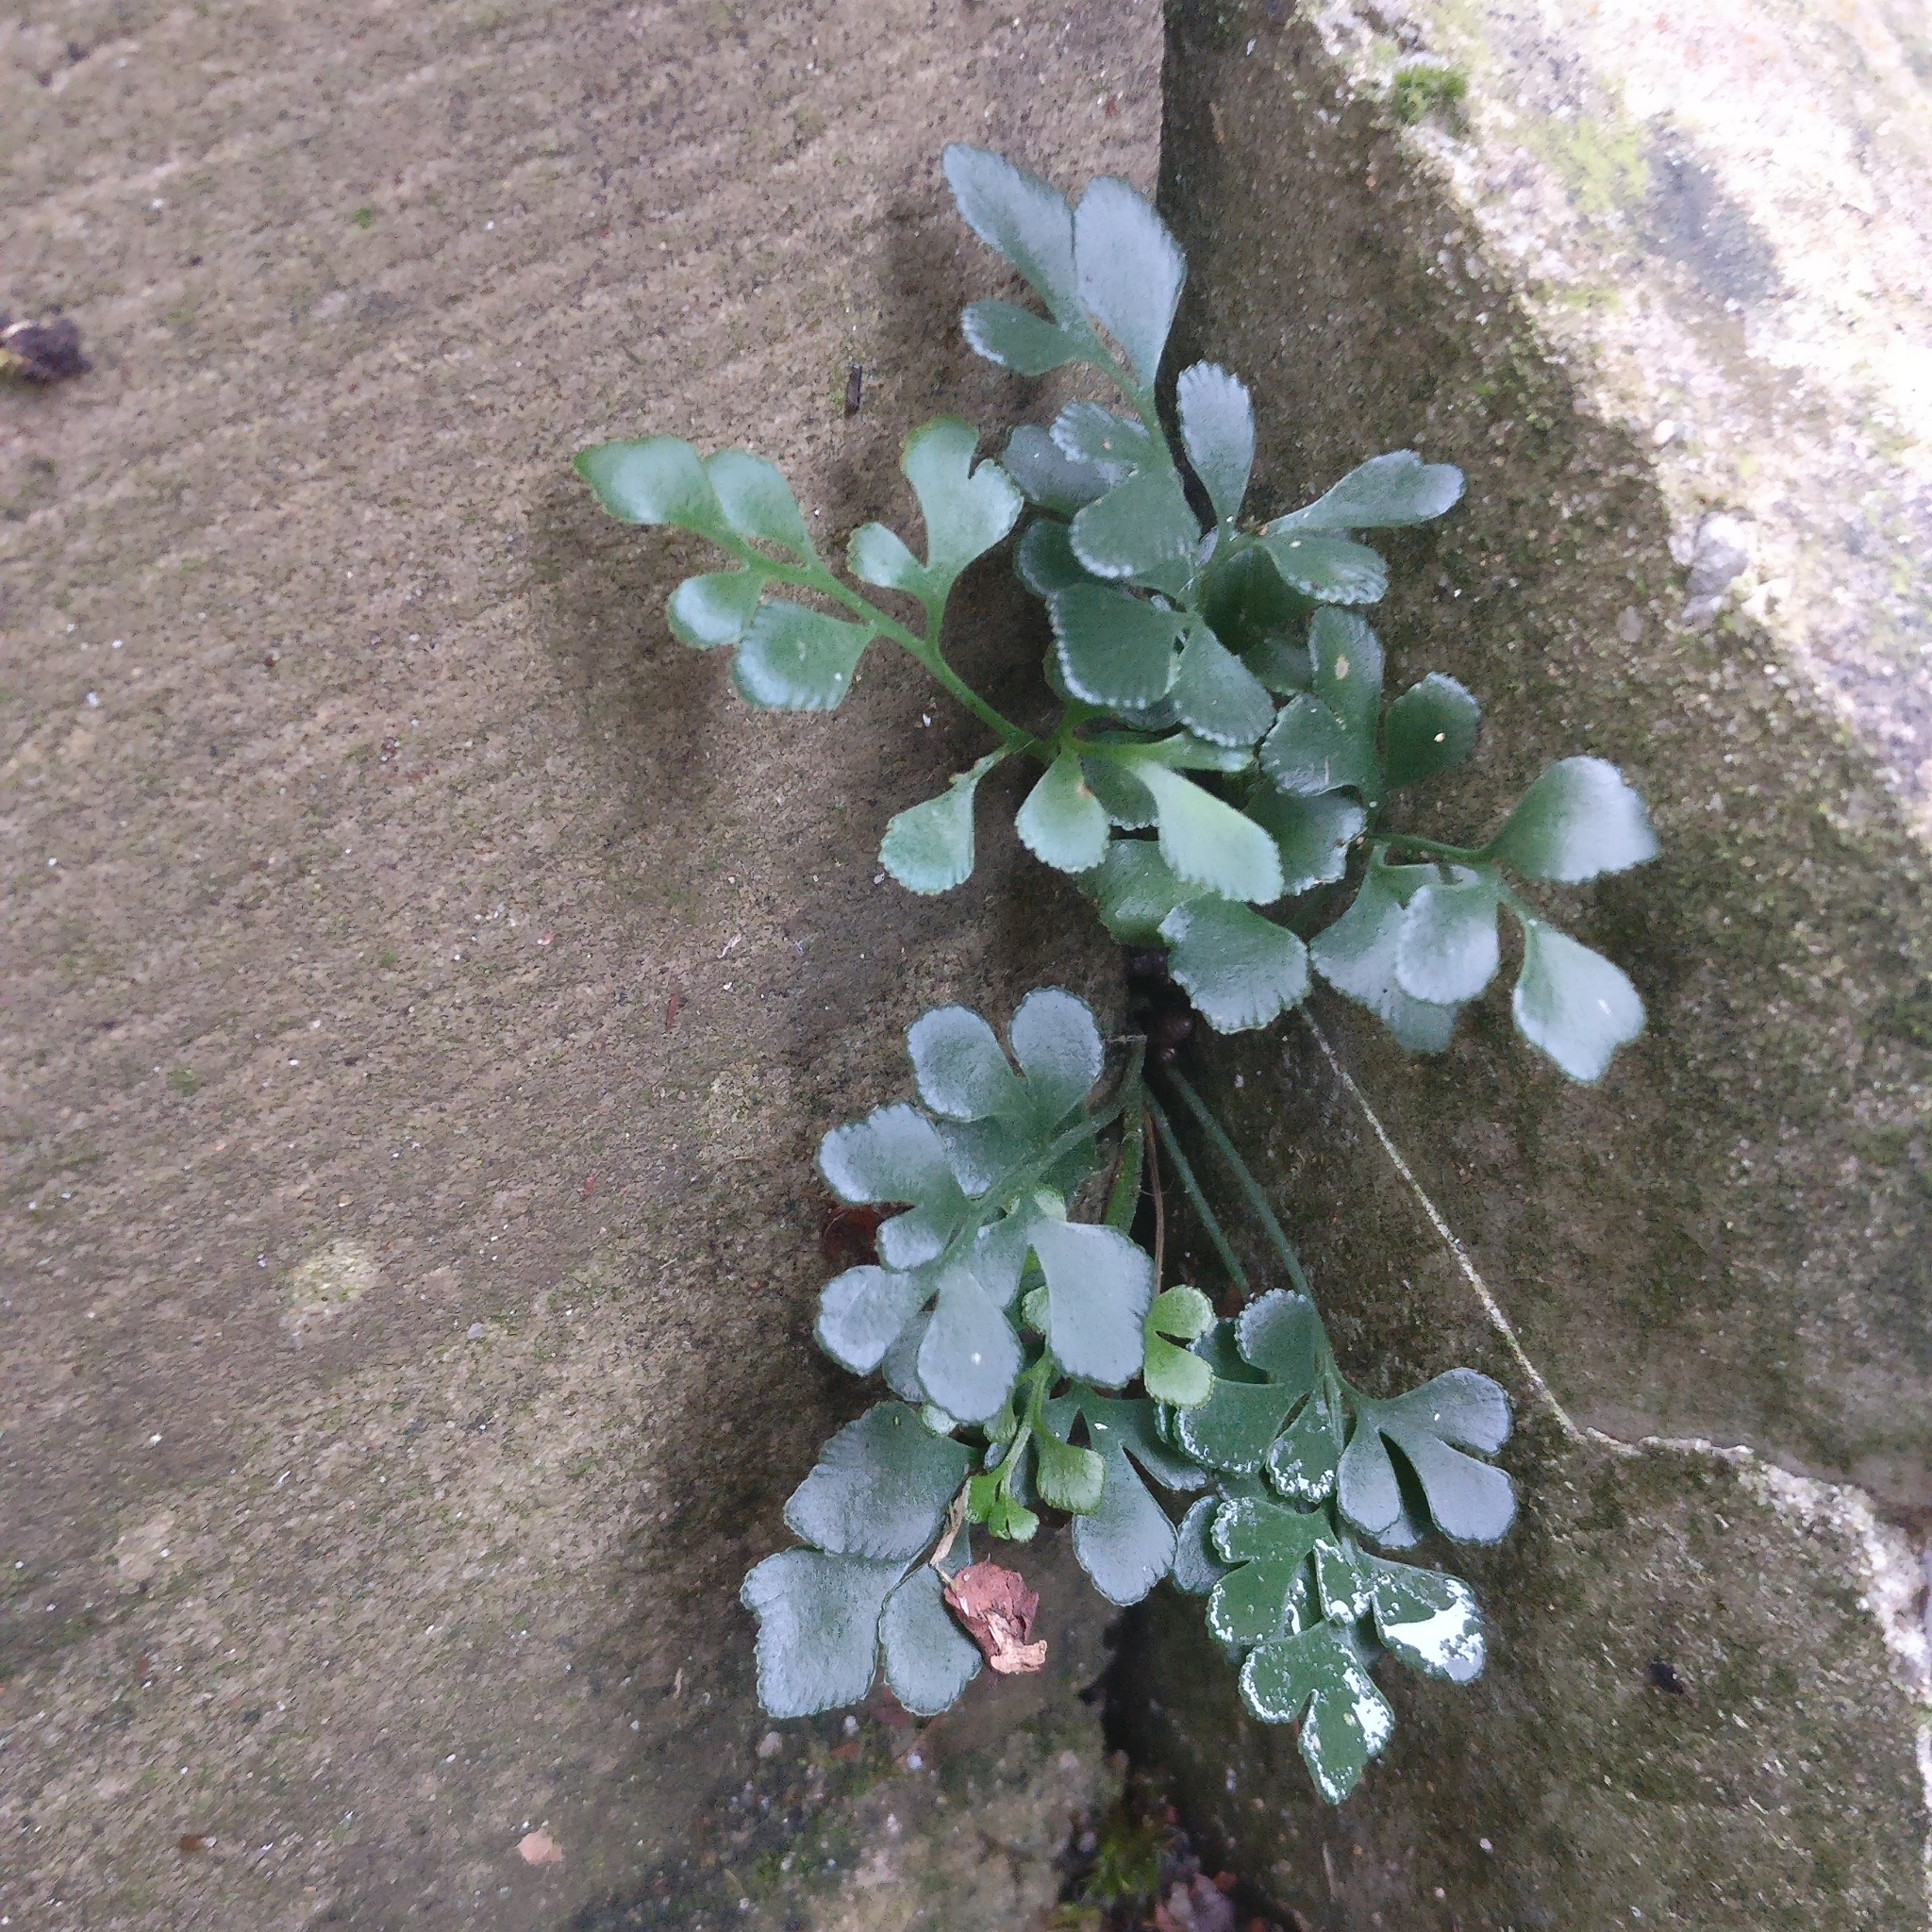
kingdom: Plantae
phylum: Tracheophyta
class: Polypodiopsida
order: Polypodiales
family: Aspleniaceae
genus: Asplenium
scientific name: Asplenium ruta-muraria
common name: Wall-rue
